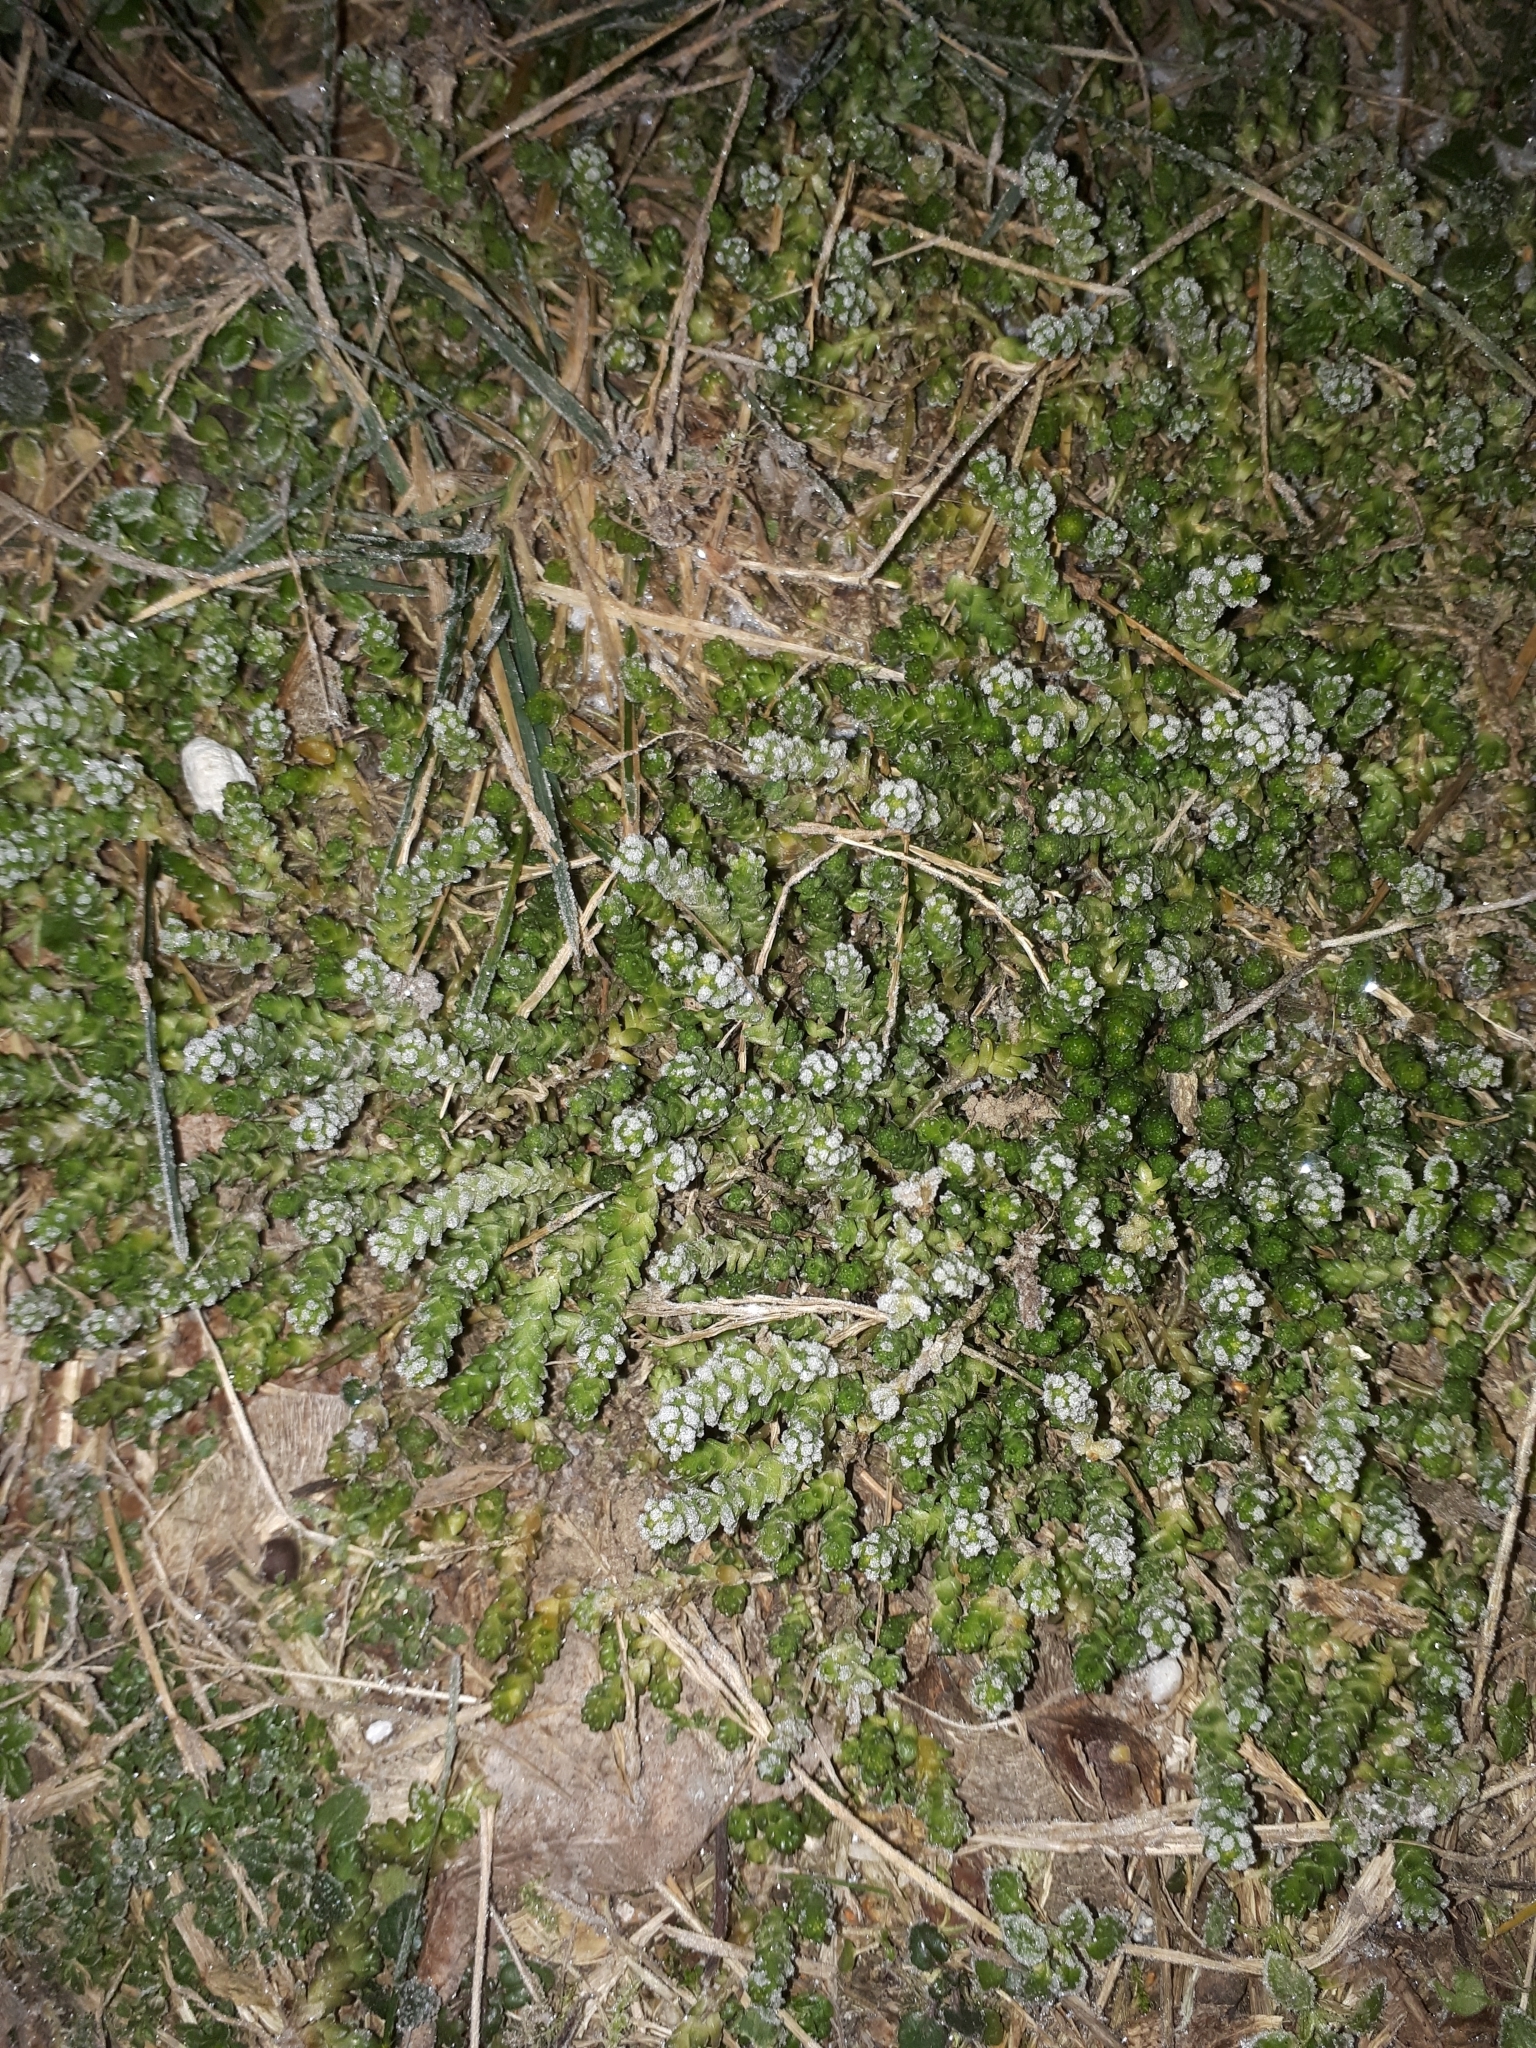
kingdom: Plantae
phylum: Tracheophyta
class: Magnoliopsida
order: Saxifragales
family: Crassulaceae
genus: Sedum
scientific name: Sedum acre
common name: Biting stonecrop
